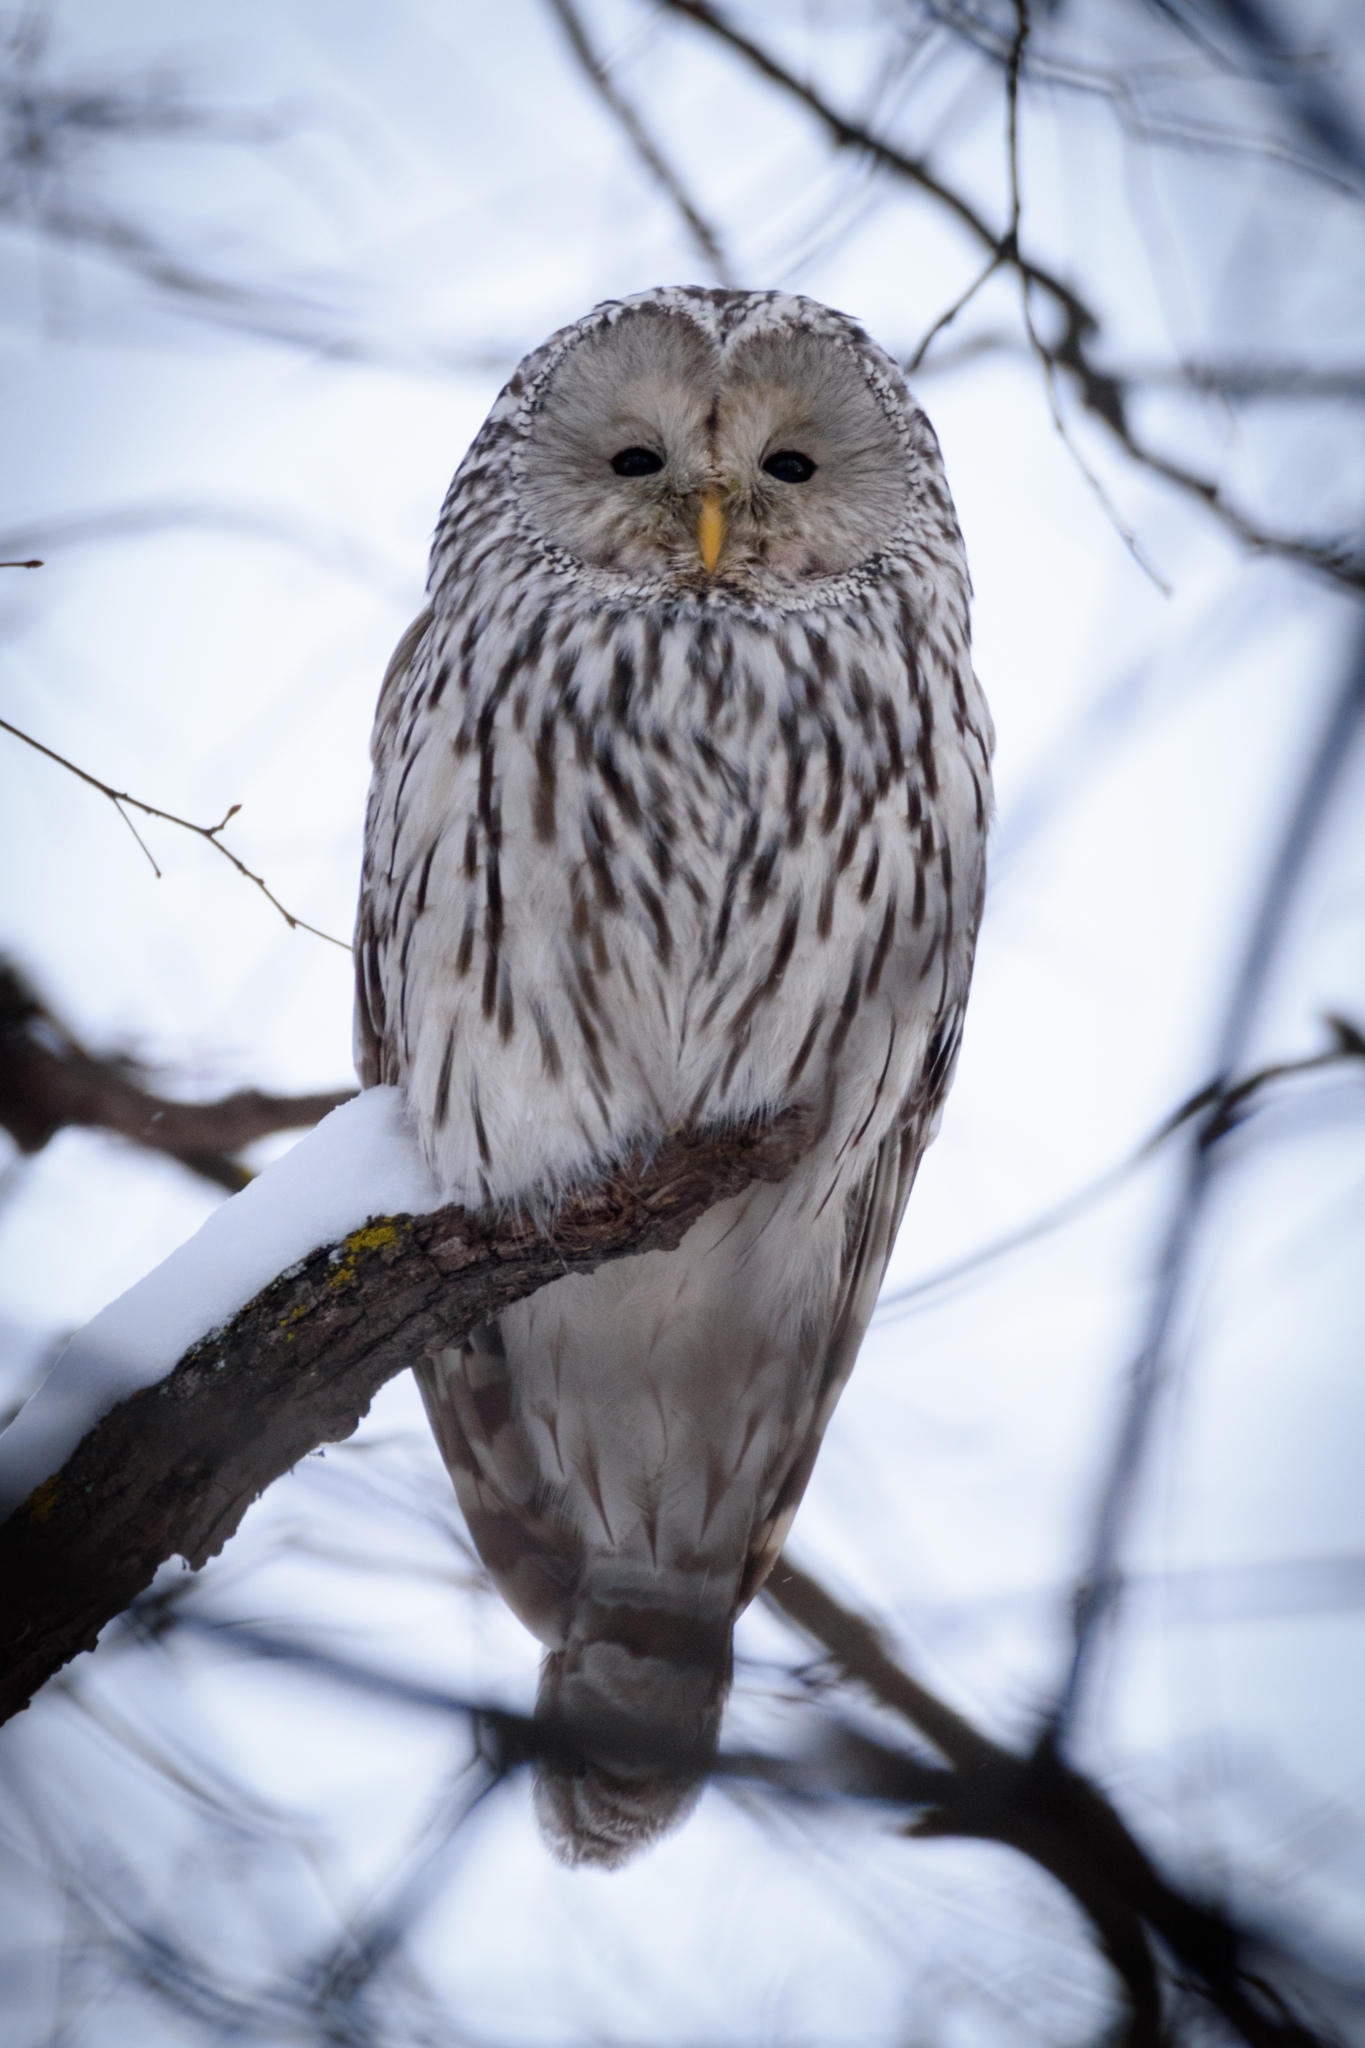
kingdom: Animalia
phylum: Chordata
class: Aves
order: Strigiformes
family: Strigidae
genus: Strix
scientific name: Strix uralensis
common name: Ural owl
